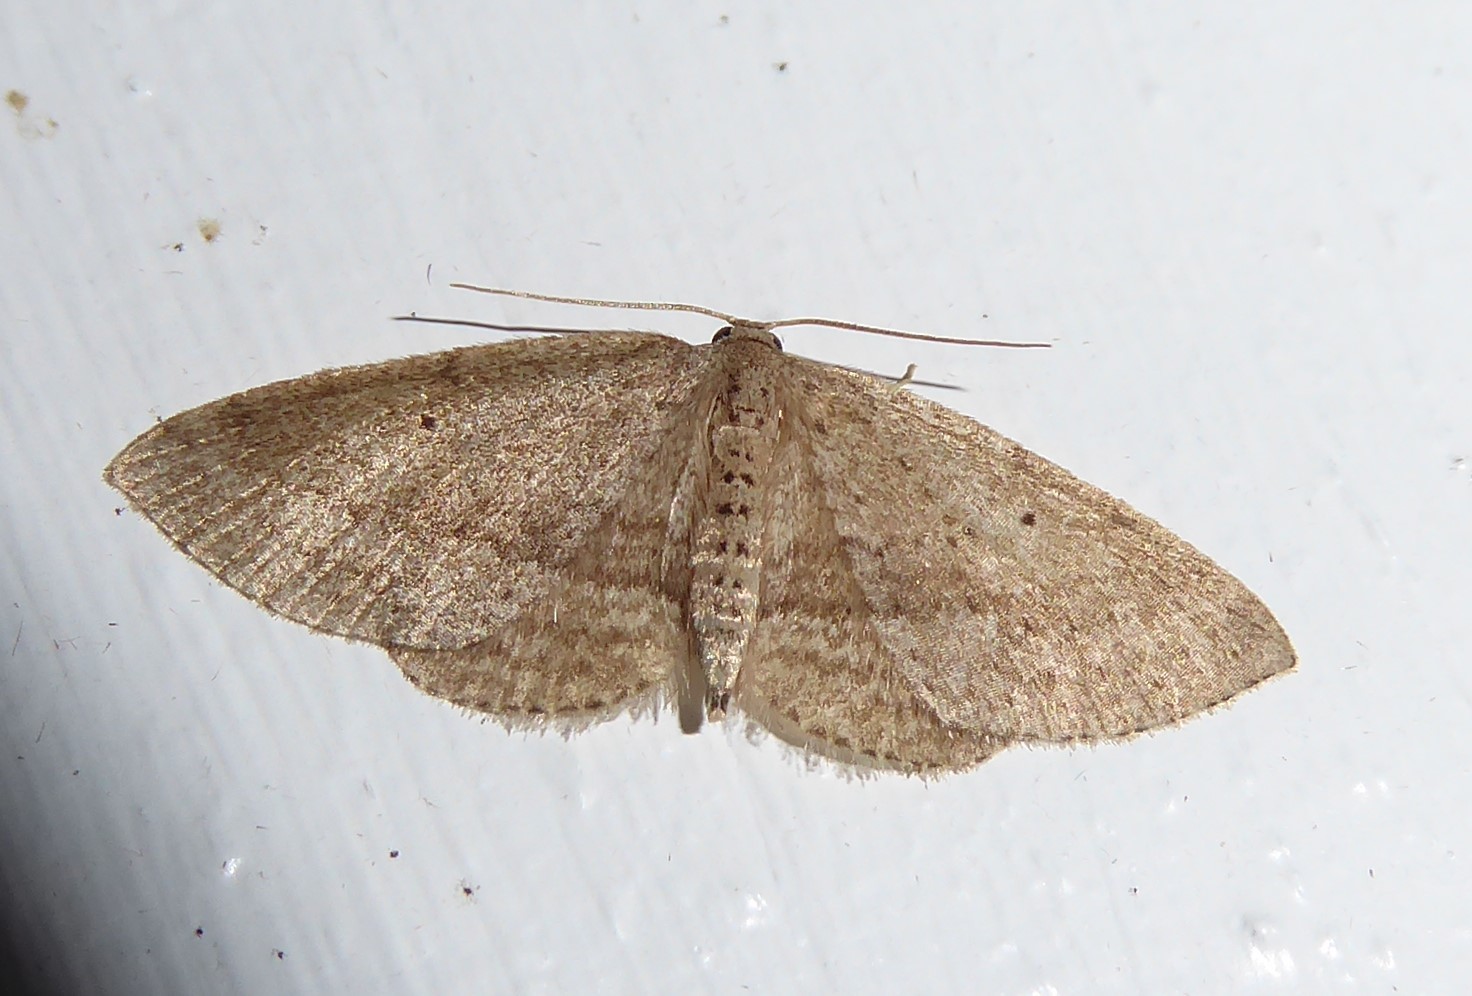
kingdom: Animalia
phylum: Arthropoda
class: Insecta
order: Lepidoptera
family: Geometridae
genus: Poecilasthena
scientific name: Poecilasthena schistaria
